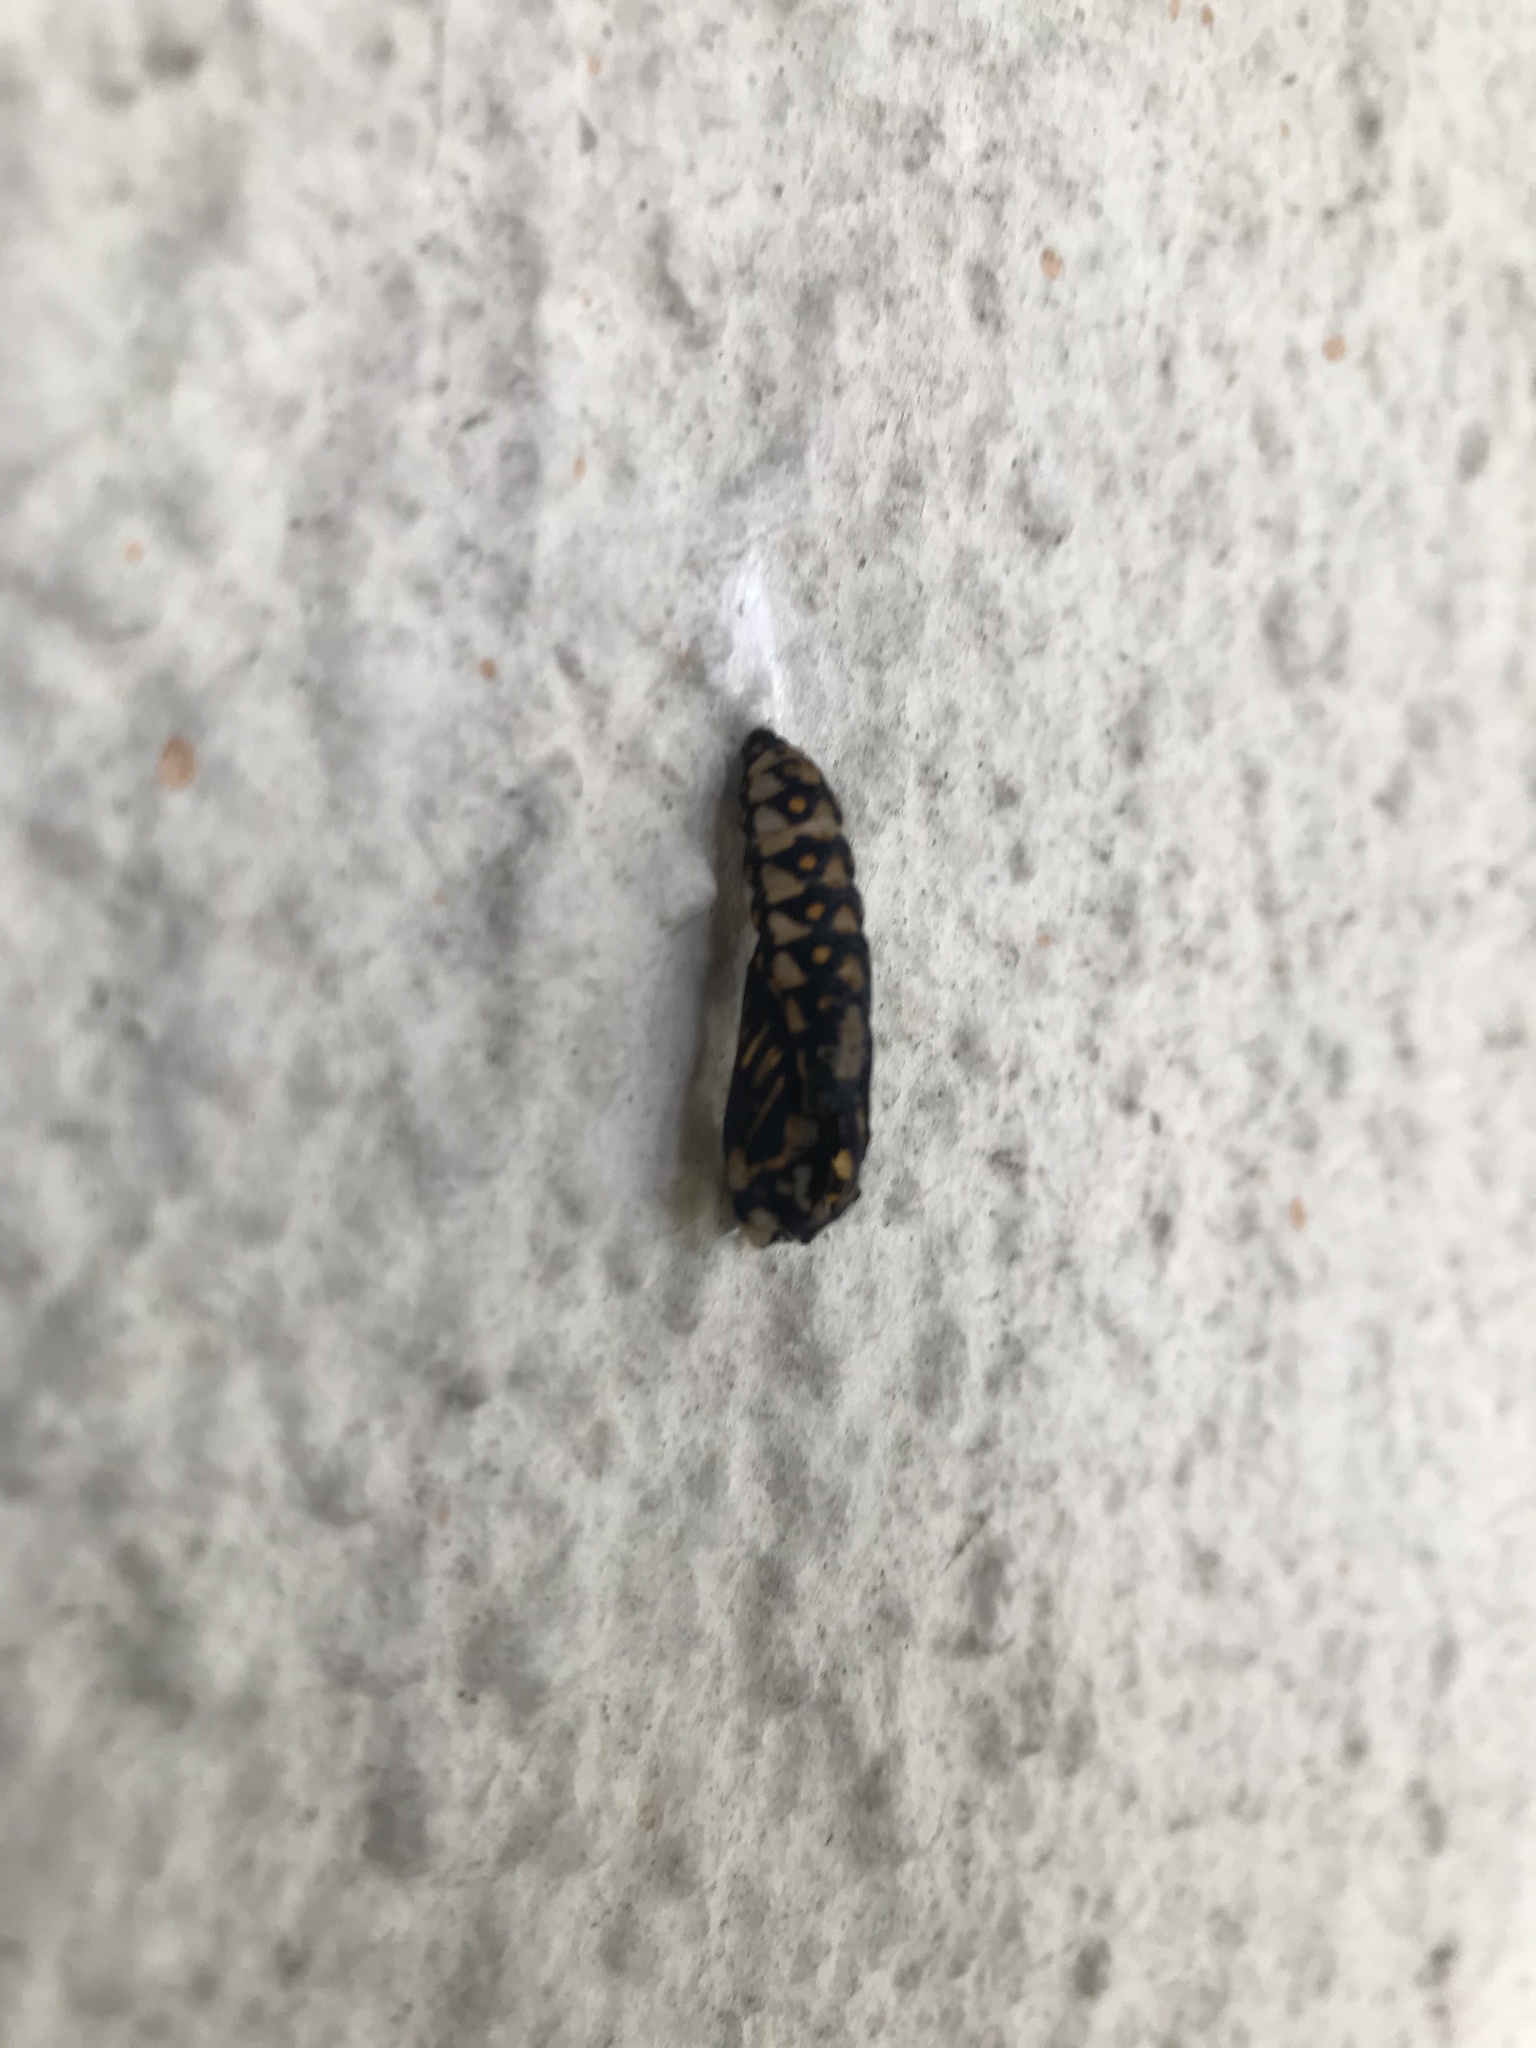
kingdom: Animalia
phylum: Arthropoda
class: Insecta
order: Lepidoptera
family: Nymphalidae
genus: Acraea
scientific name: Acraea horta
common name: Garden acraea
